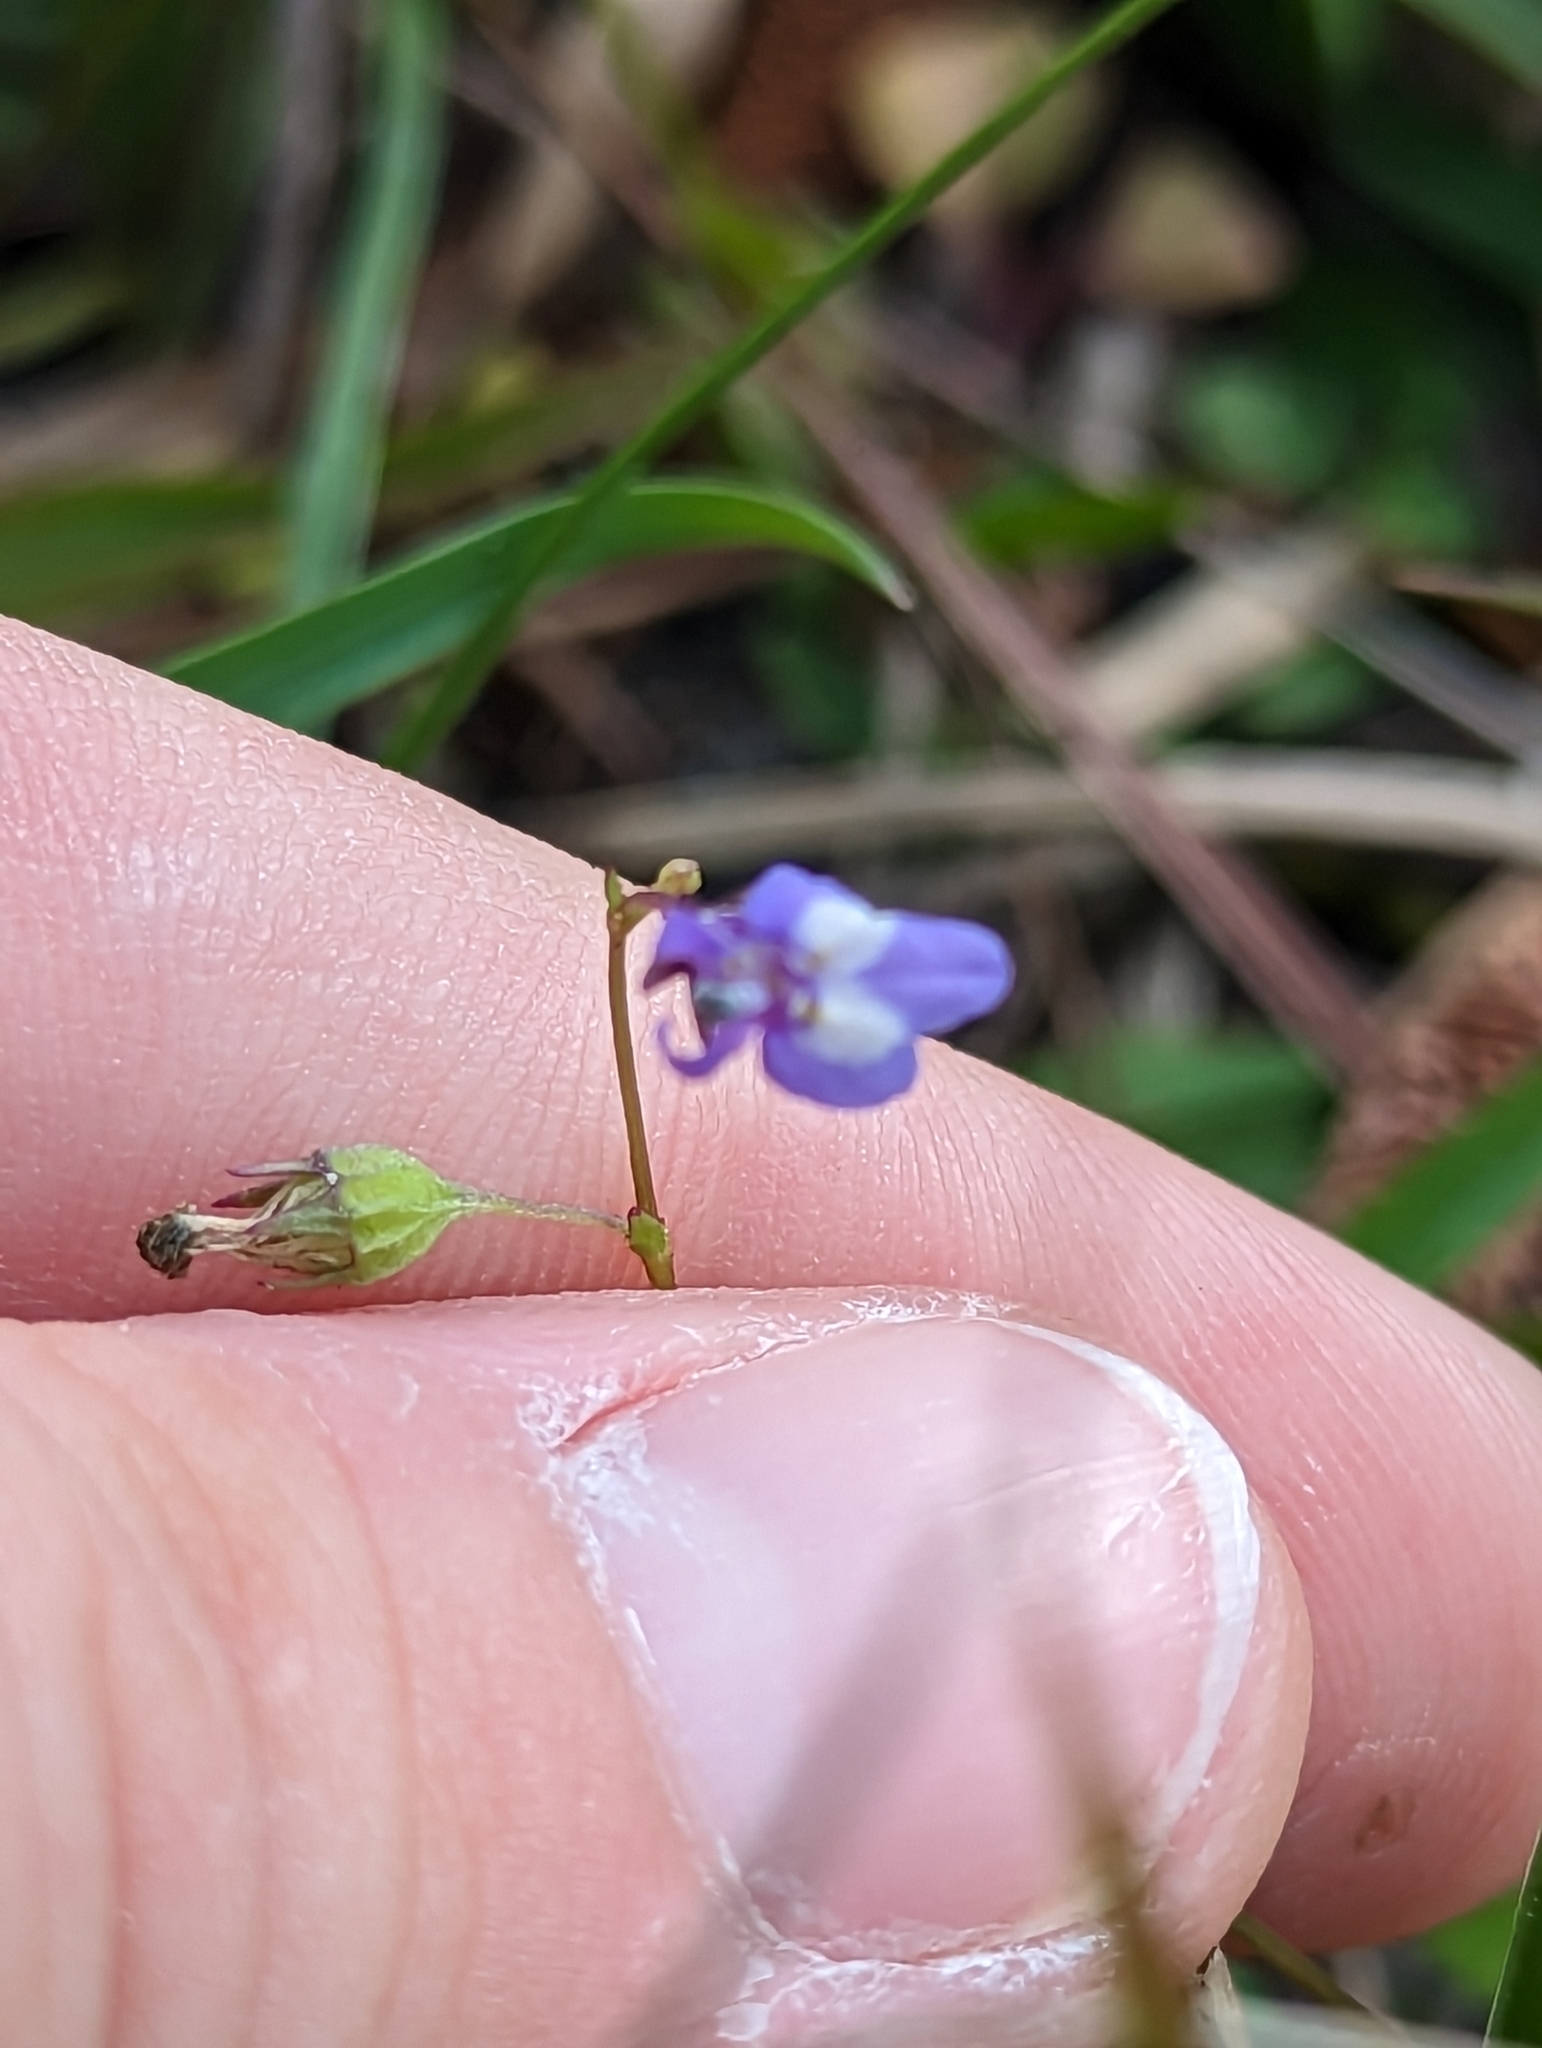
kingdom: Plantae
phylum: Tracheophyta
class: Magnoliopsida
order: Asterales
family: Campanulaceae
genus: Lobelia
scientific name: Lobelia feayana
